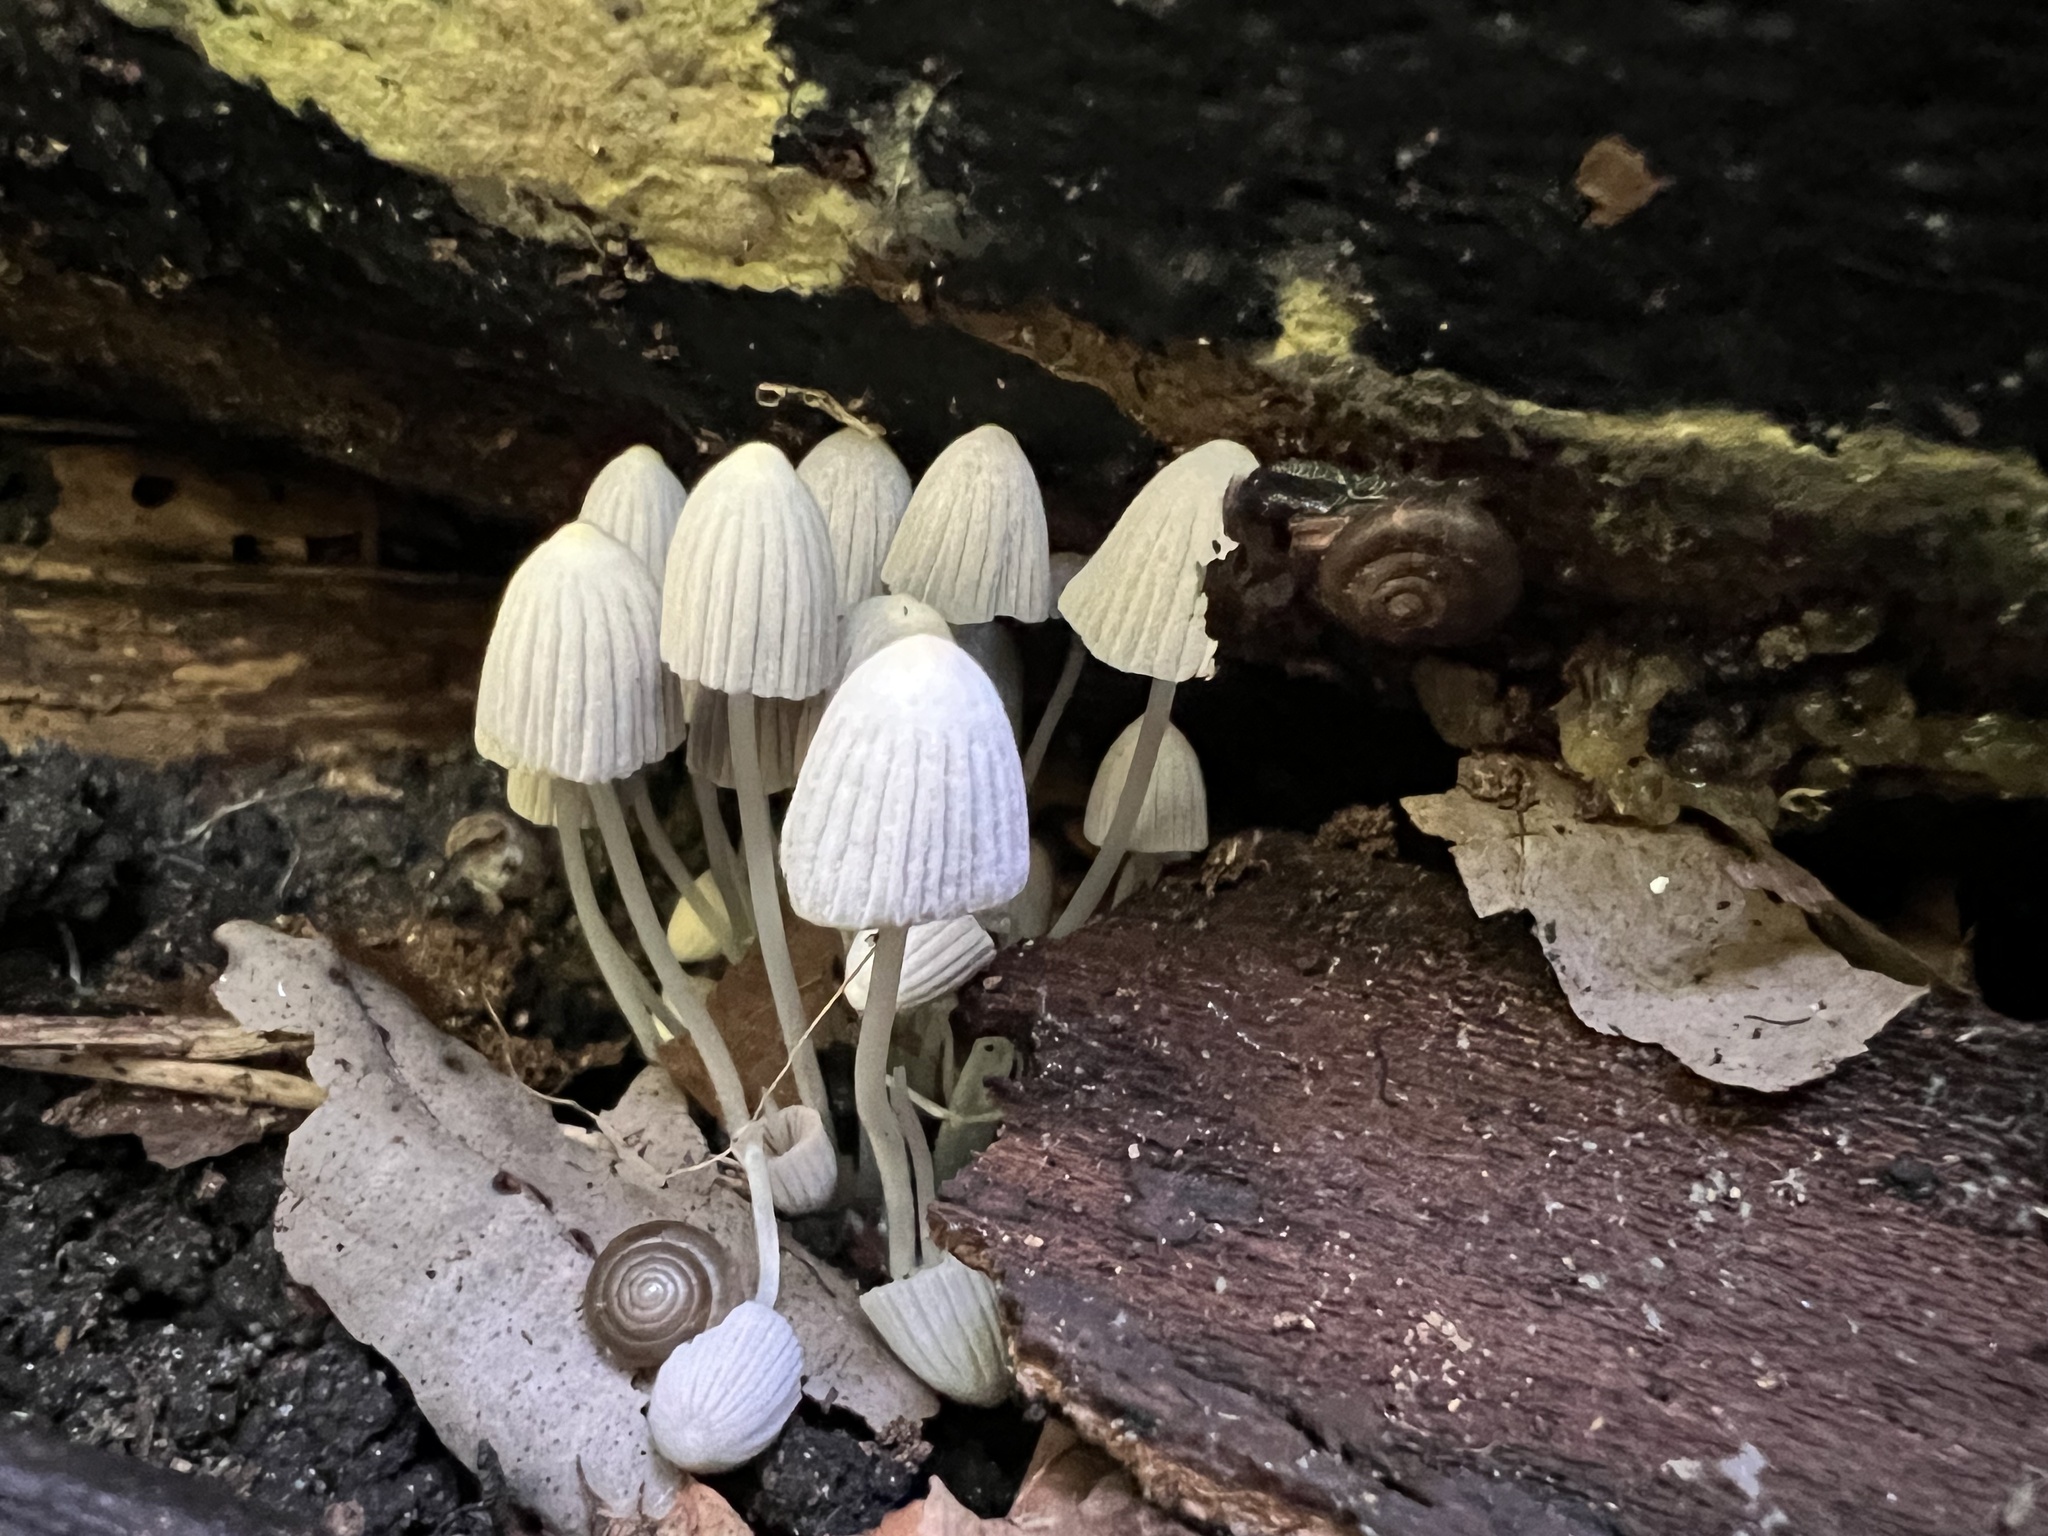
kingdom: Fungi
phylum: Basidiomycota
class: Agaricomycetes
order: Agaricales
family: Psathyrellaceae
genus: Coprinellus
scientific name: Coprinellus disseminatus
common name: Fairies' bonnets
